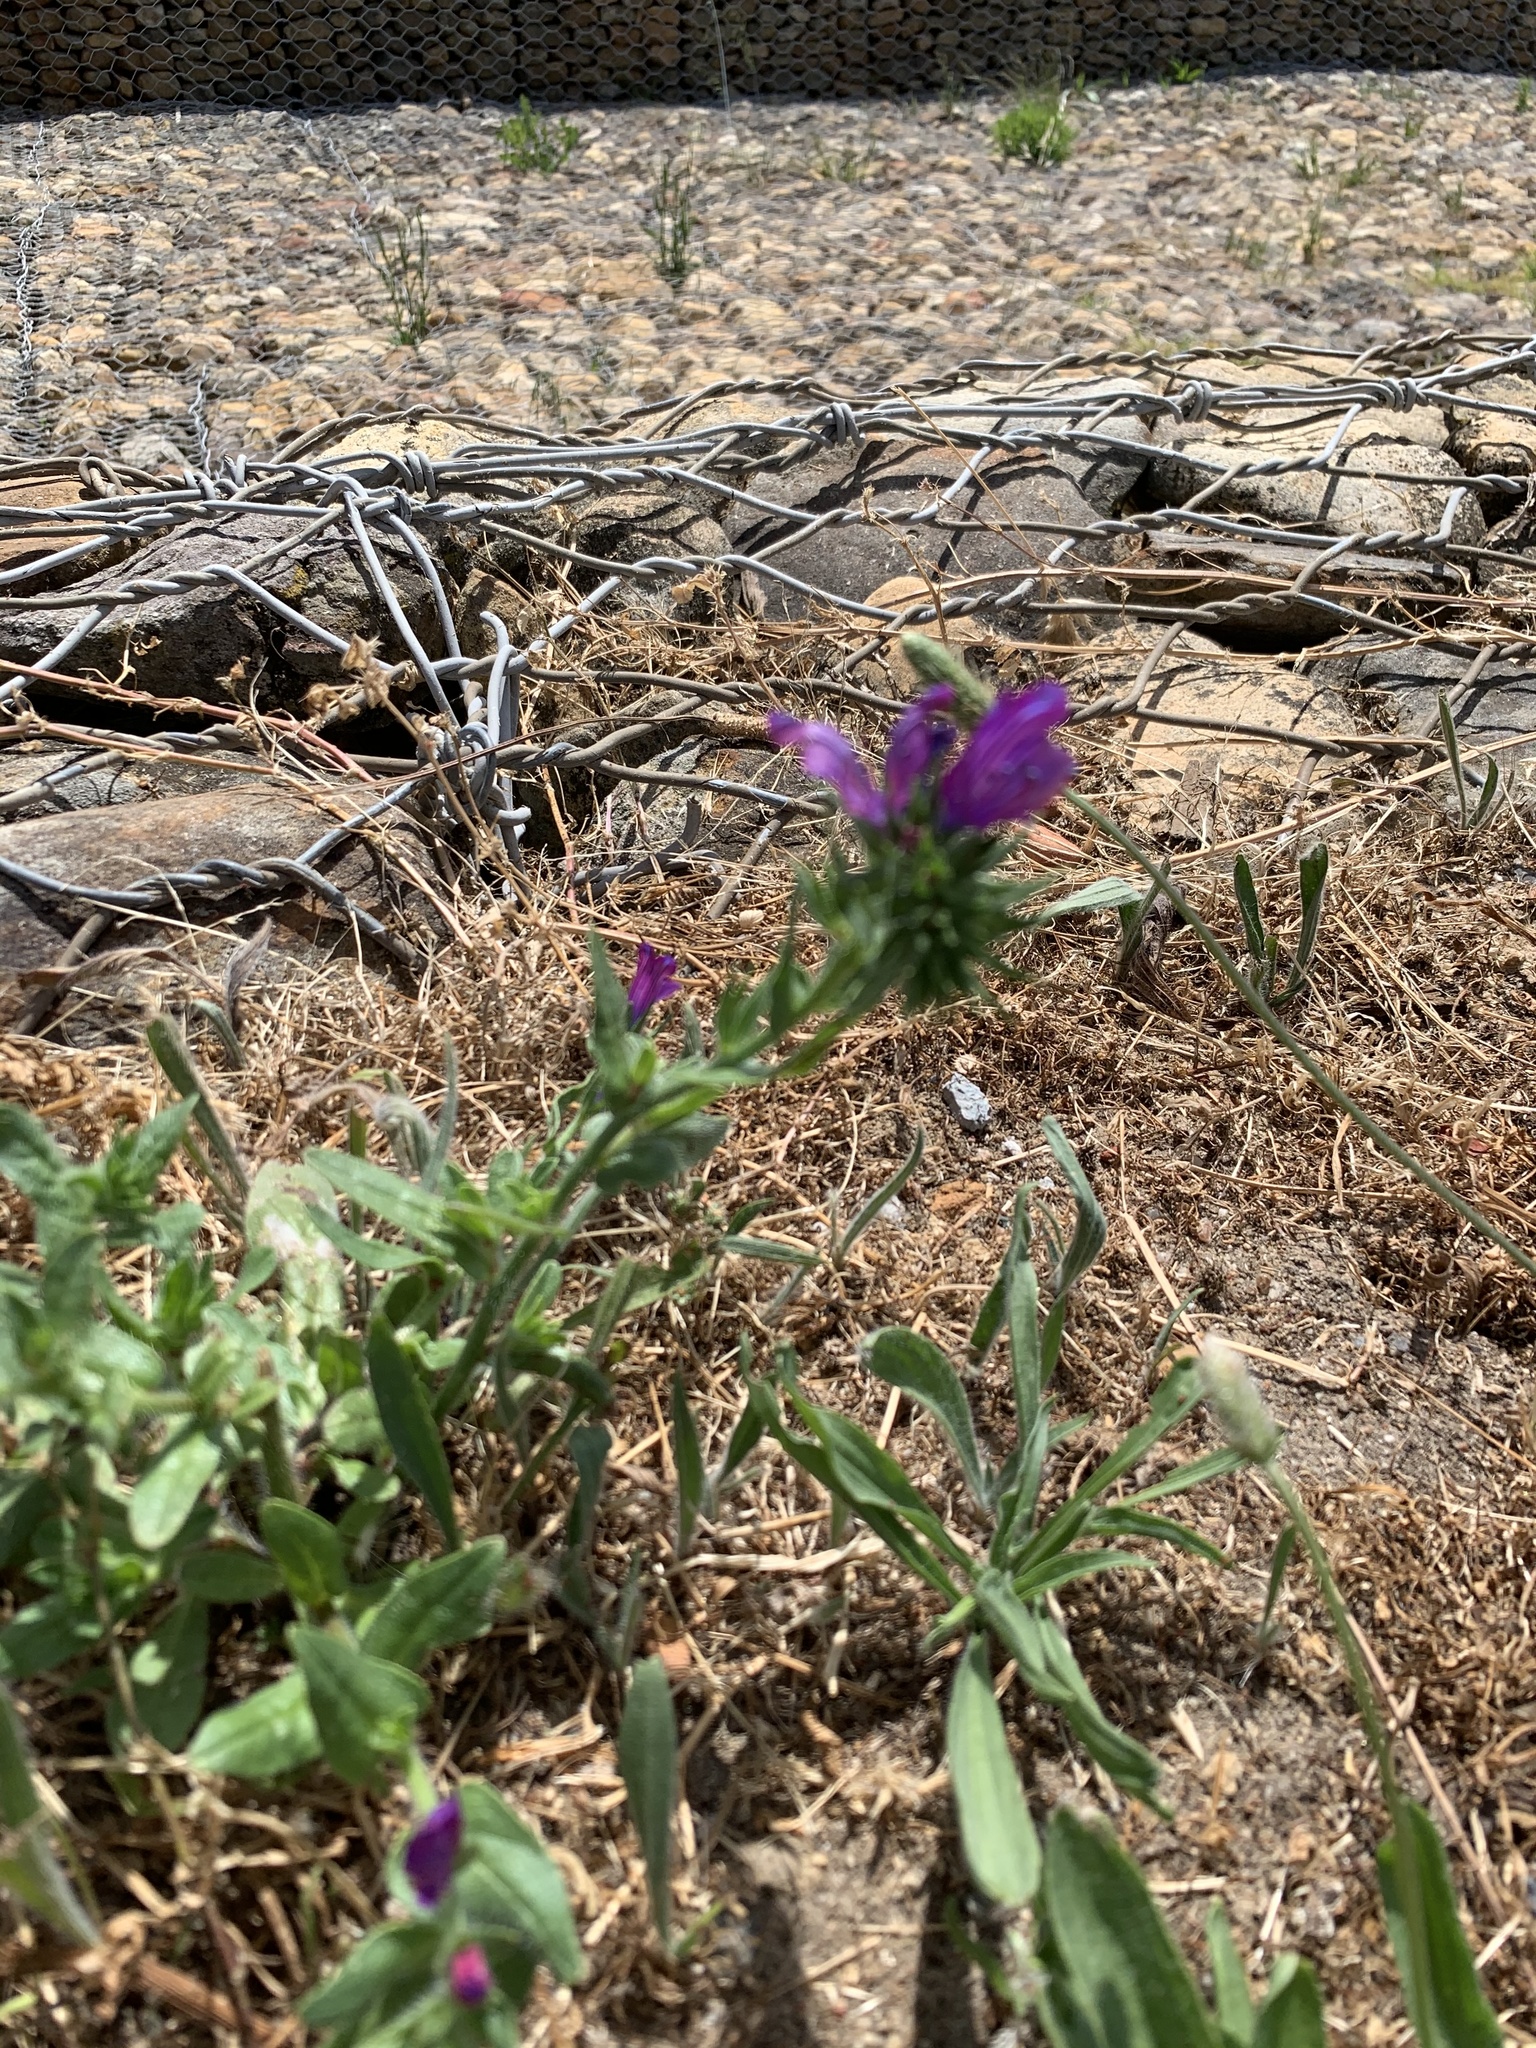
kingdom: Plantae
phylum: Tracheophyta
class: Magnoliopsida
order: Boraginales
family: Boraginaceae
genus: Echium
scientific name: Echium plantagineum
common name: Purple viper's-bugloss
